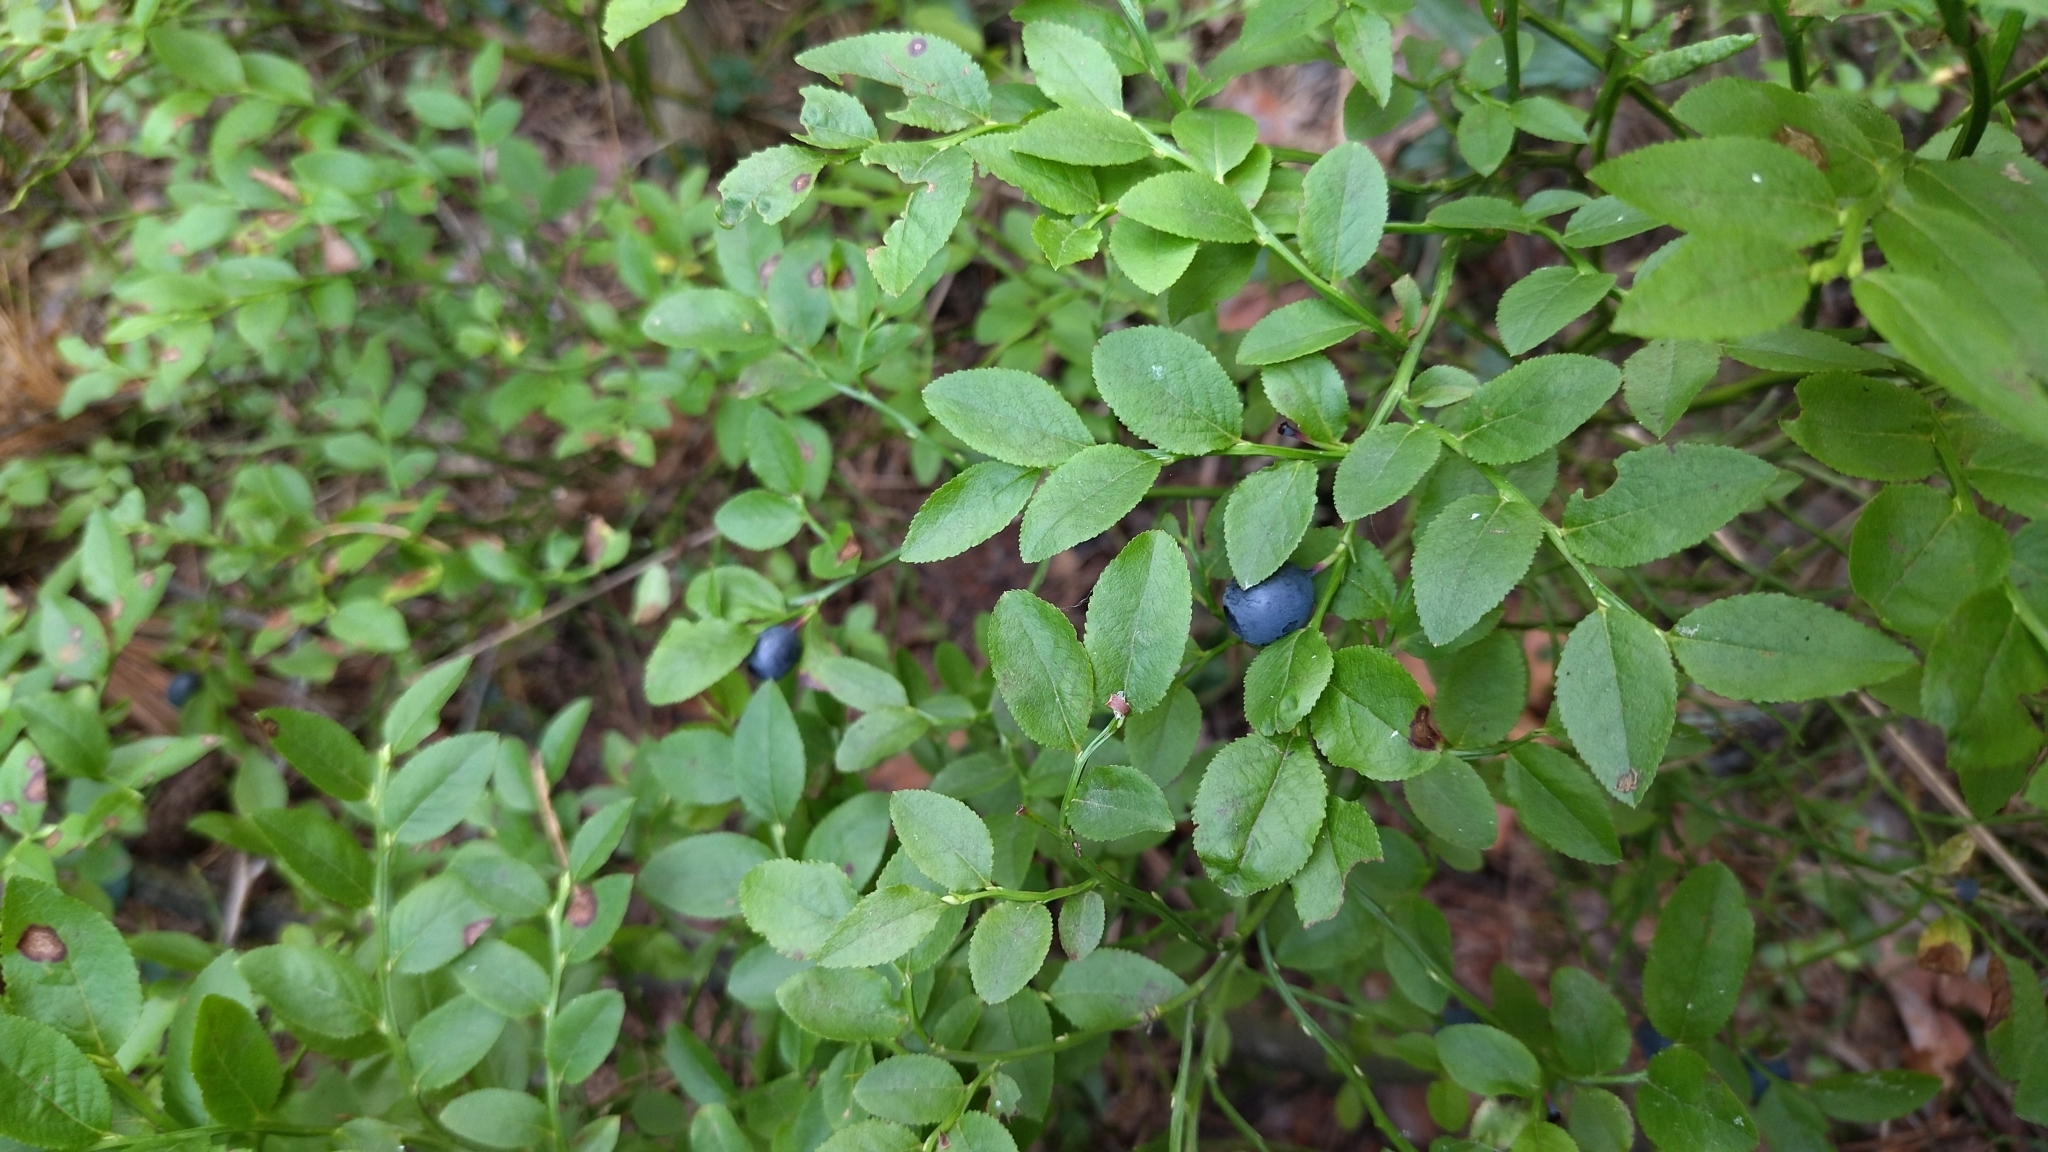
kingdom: Plantae
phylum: Tracheophyta
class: Magnoliopsida
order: Ericales
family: Ericaceae
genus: Vaccinium
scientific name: Vaccinium myrtillus
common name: Bilberry
